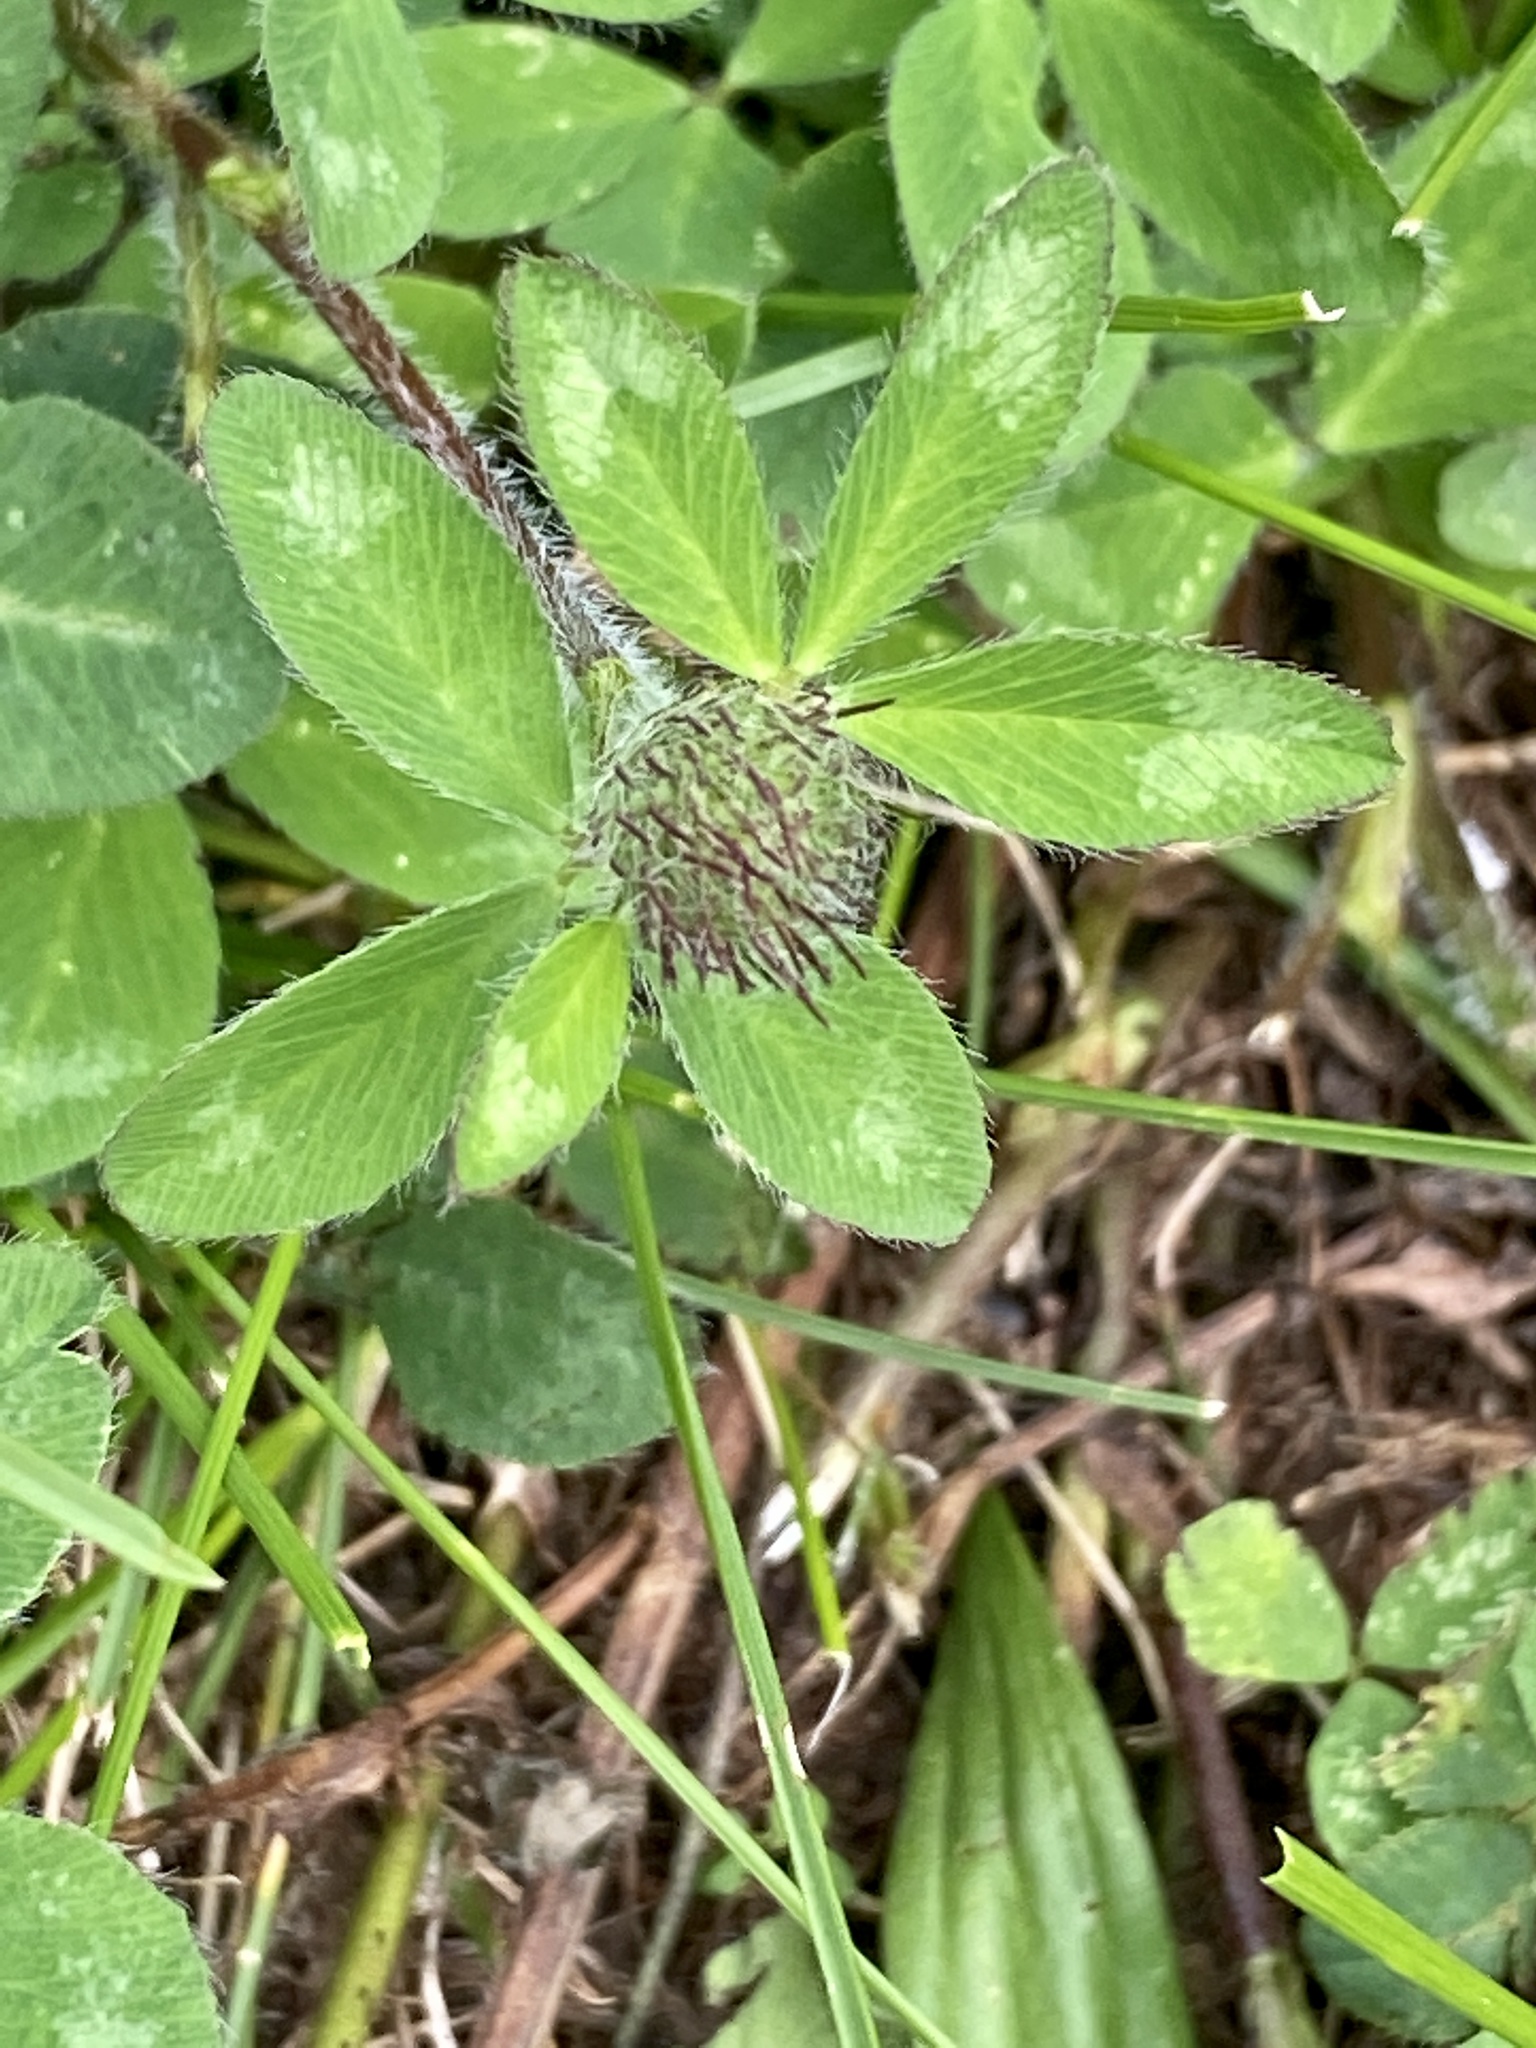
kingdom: Plantae
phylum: Tracheophyta
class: Magnoliopsida
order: Fabales
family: Fabaceae
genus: Trifolium
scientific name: Trifolium pratense
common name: Red clover
